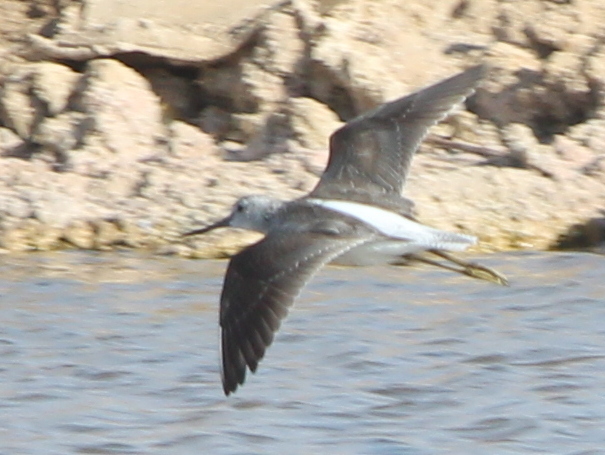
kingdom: Animalia
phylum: Chordata
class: Aves
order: Charadriiformes
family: Scolopacidae
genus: Tringa
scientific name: Tringa nebularia
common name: Common greenshank
